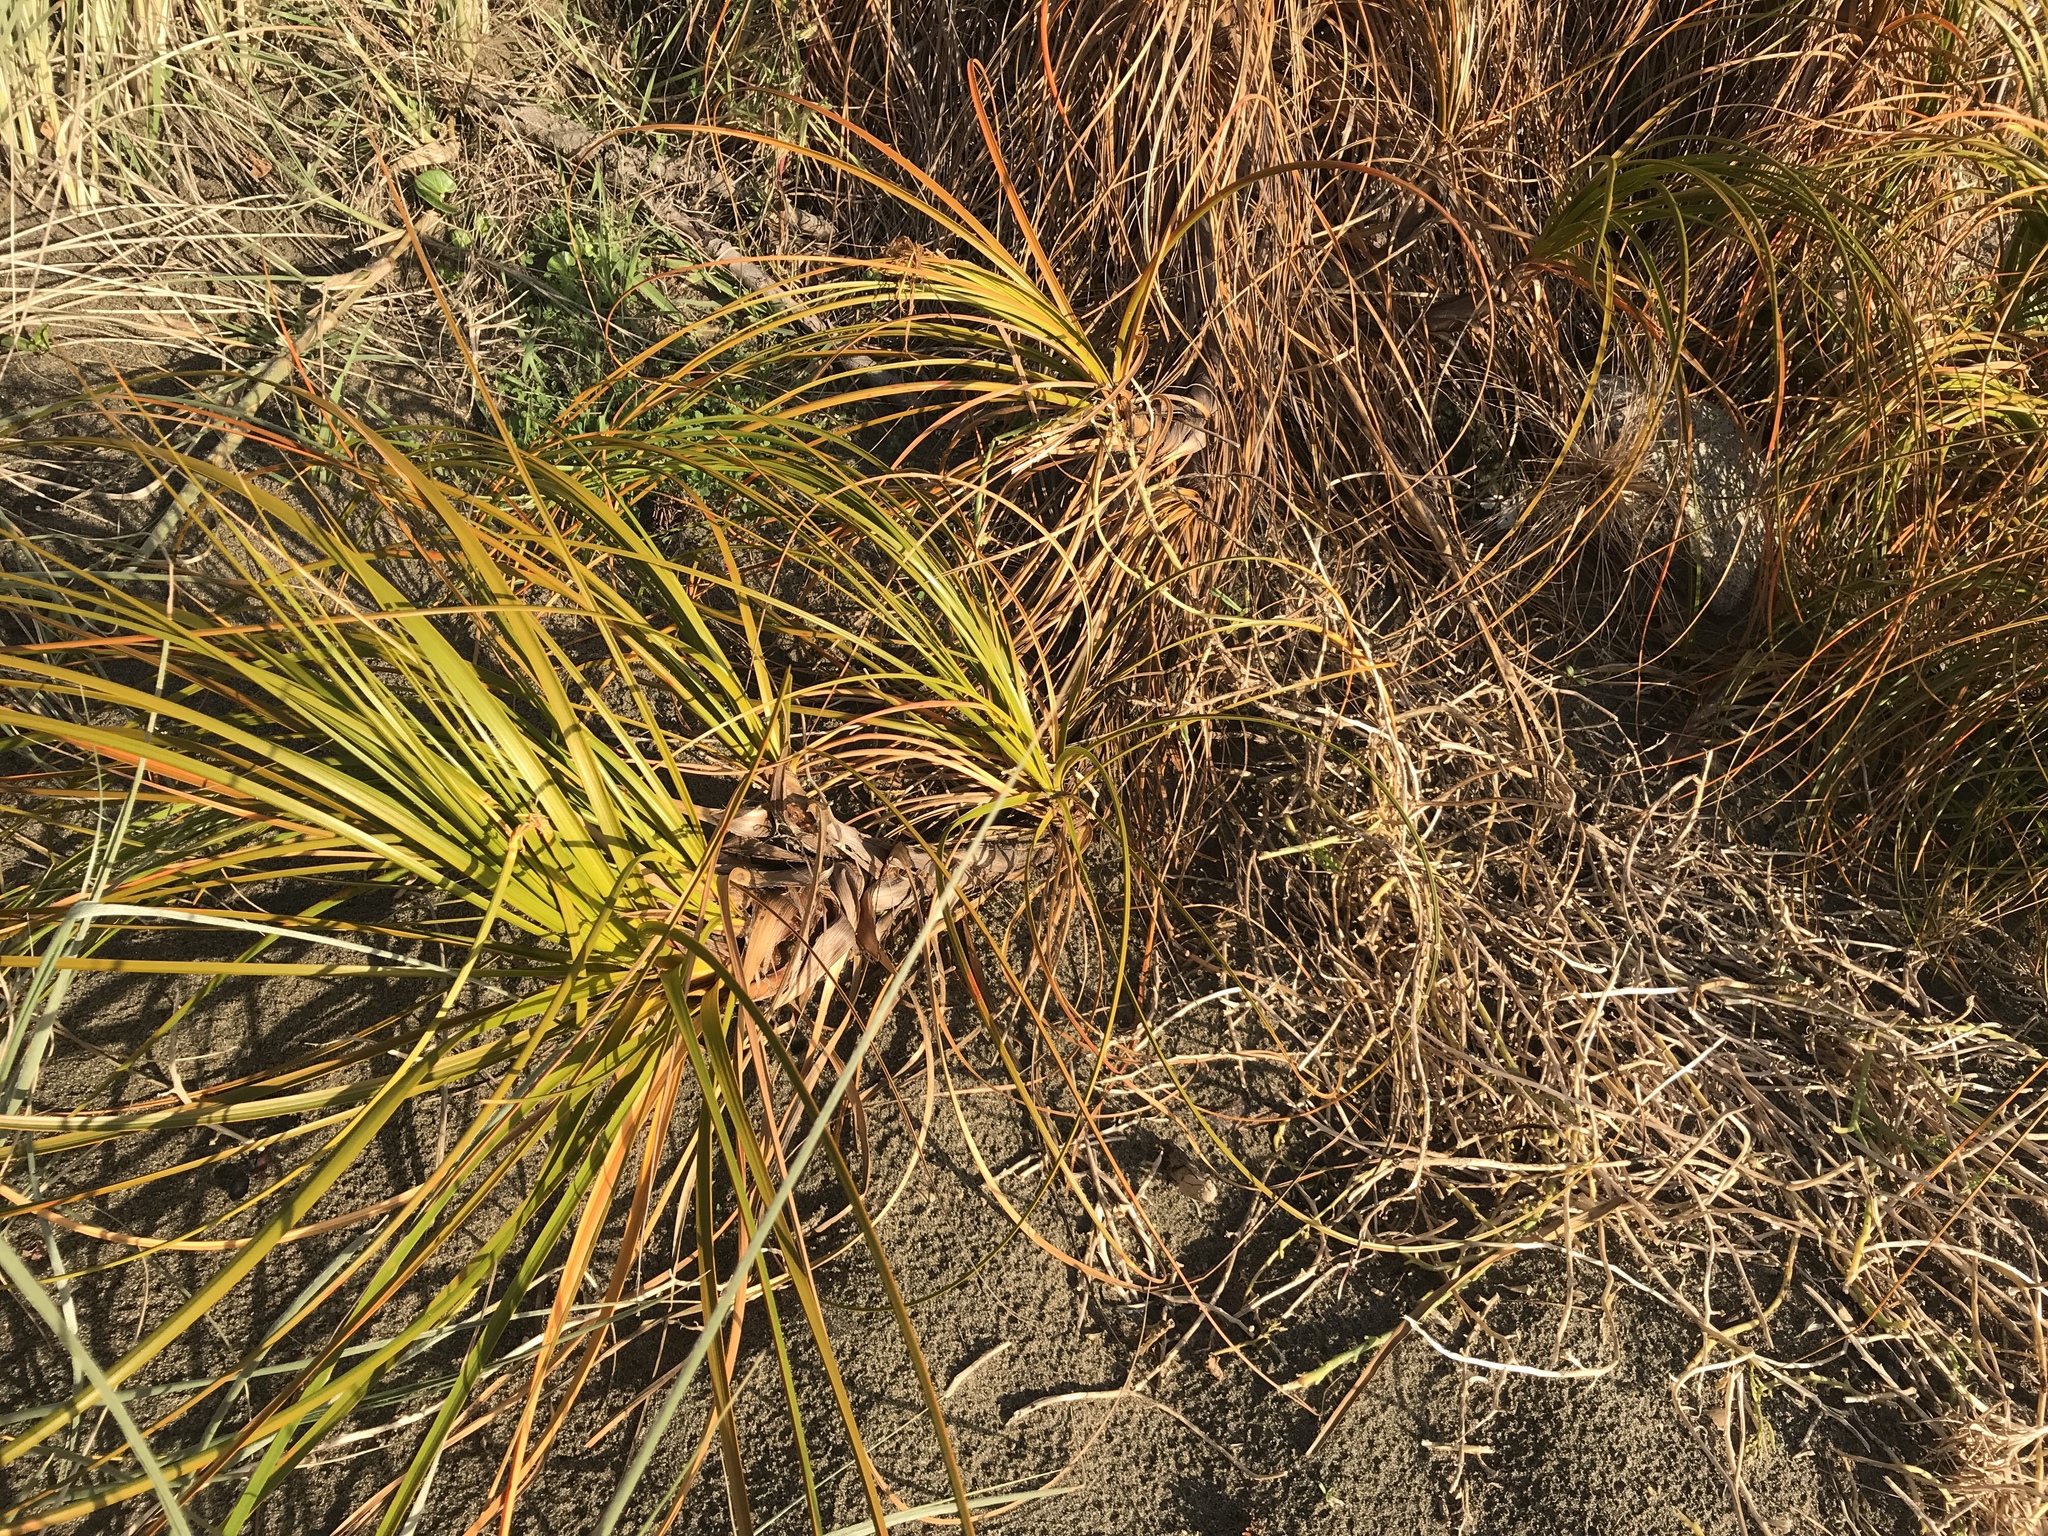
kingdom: Plantae
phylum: Tracheophyta
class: Liliopsida
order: Poales
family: Cyperaceae
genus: Ficinia
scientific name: Ficinia spiralis
